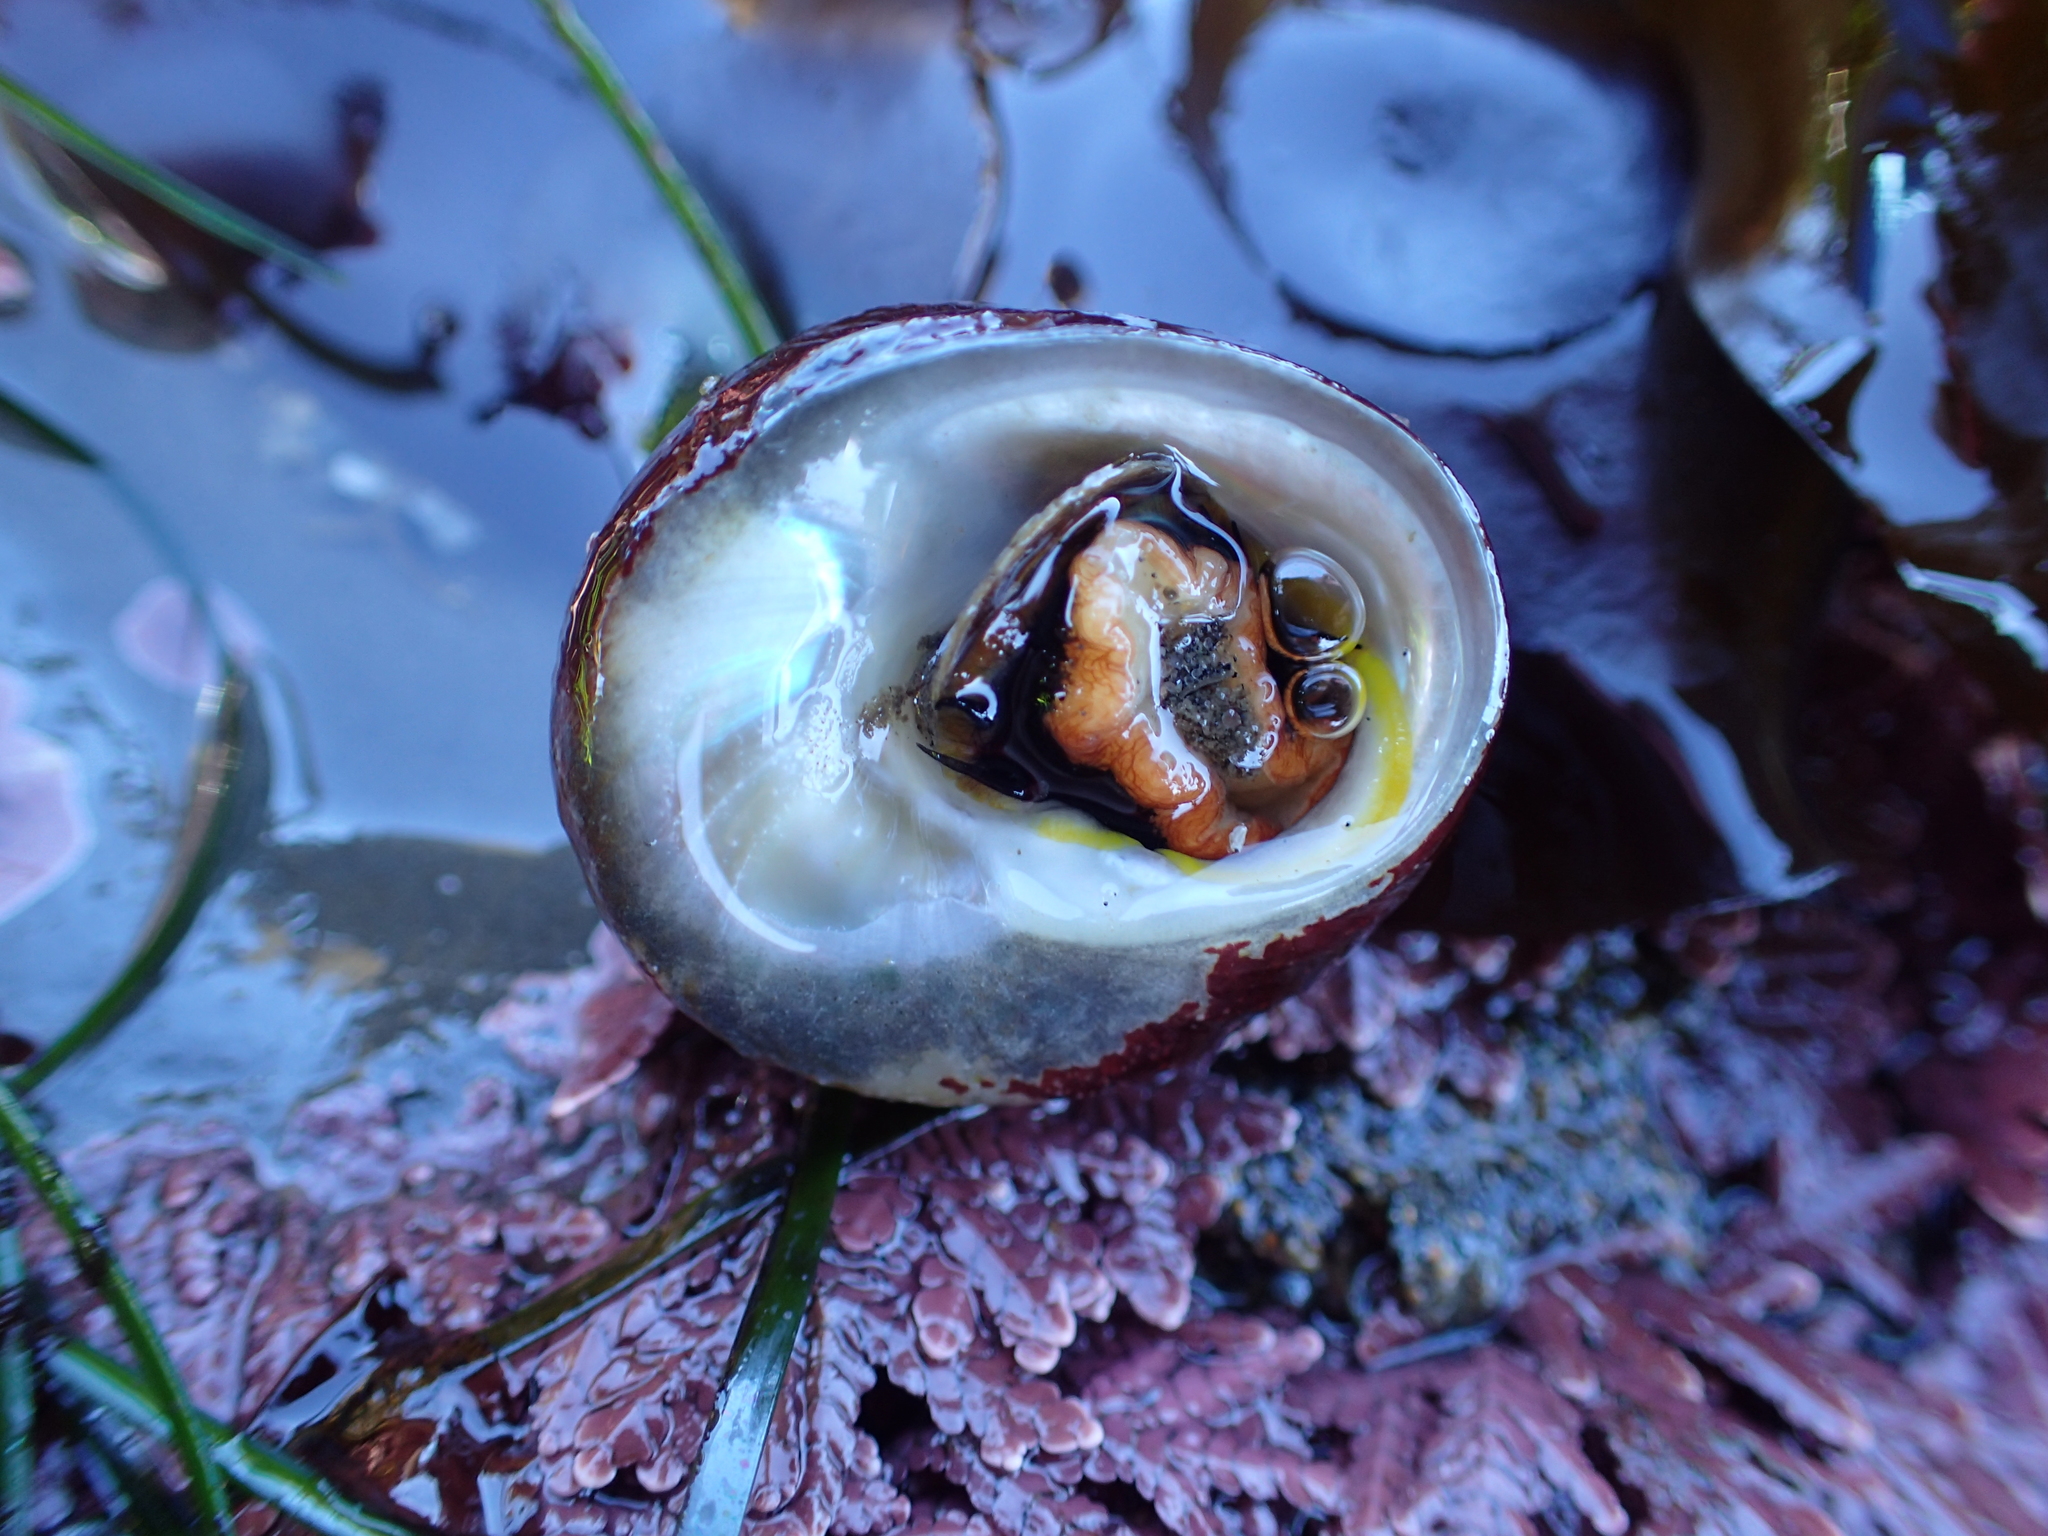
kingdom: Animalia
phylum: Mollusca
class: Gastropoda
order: Trochida
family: Tegulidae
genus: Tegula
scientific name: Tegula brunnea
